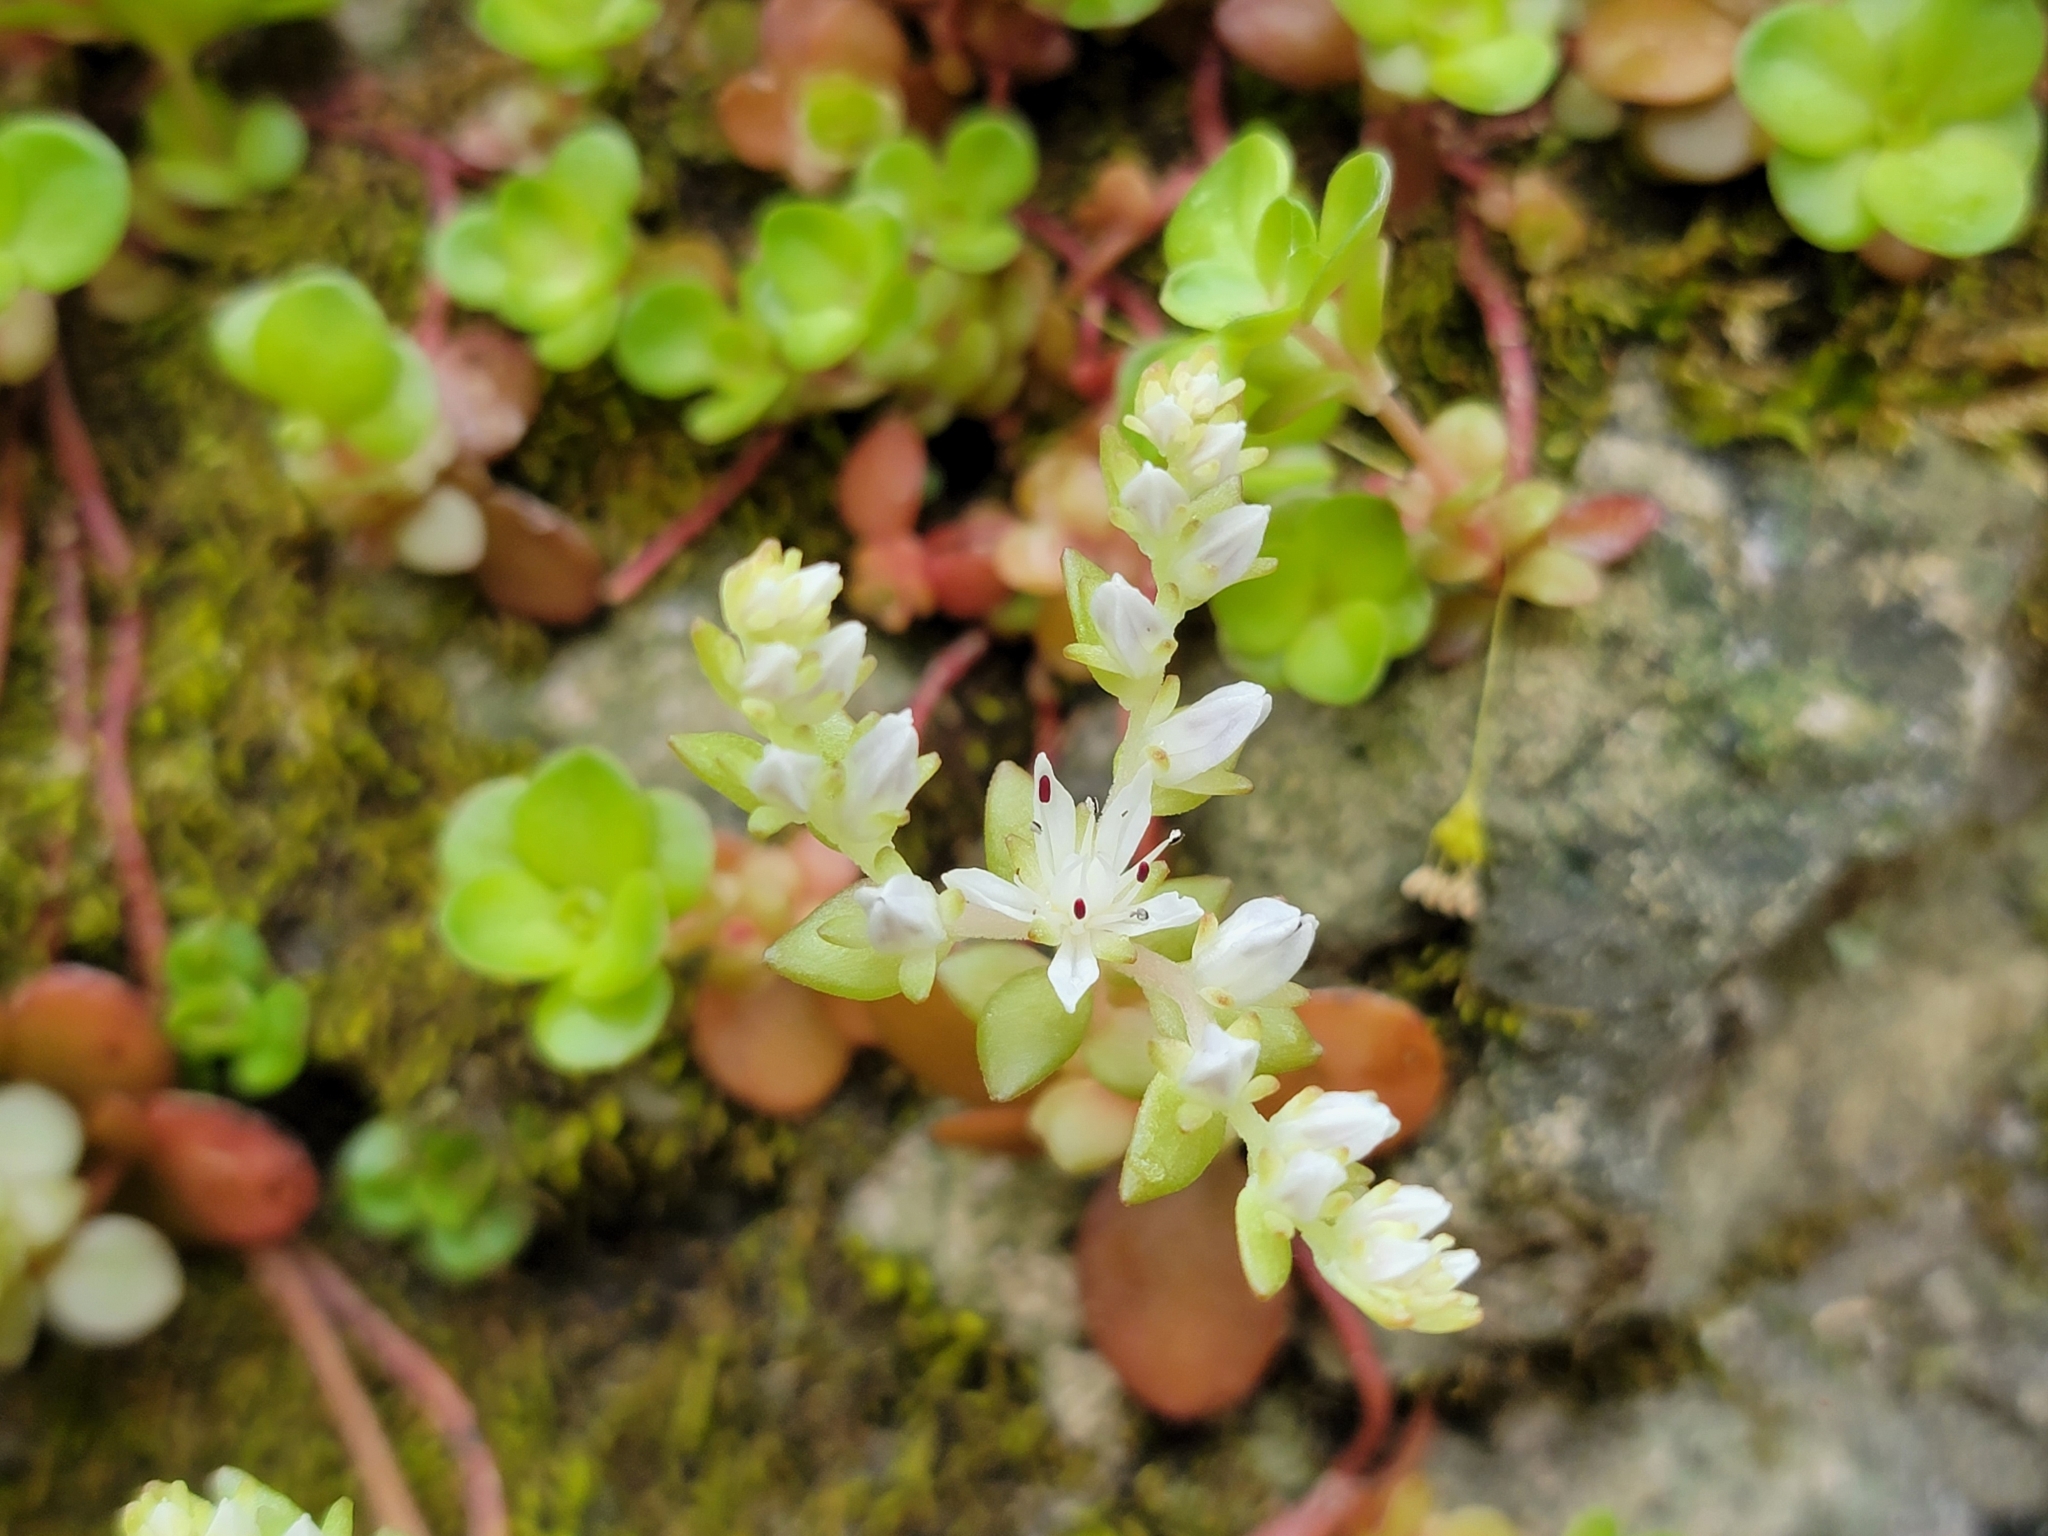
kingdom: Plantae
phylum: Tracheophyta
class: Magnoliopsida
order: Saxifragales
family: Crassulaceae
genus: Sedum
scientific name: Sedum ternatum
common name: Wild stonecrop
